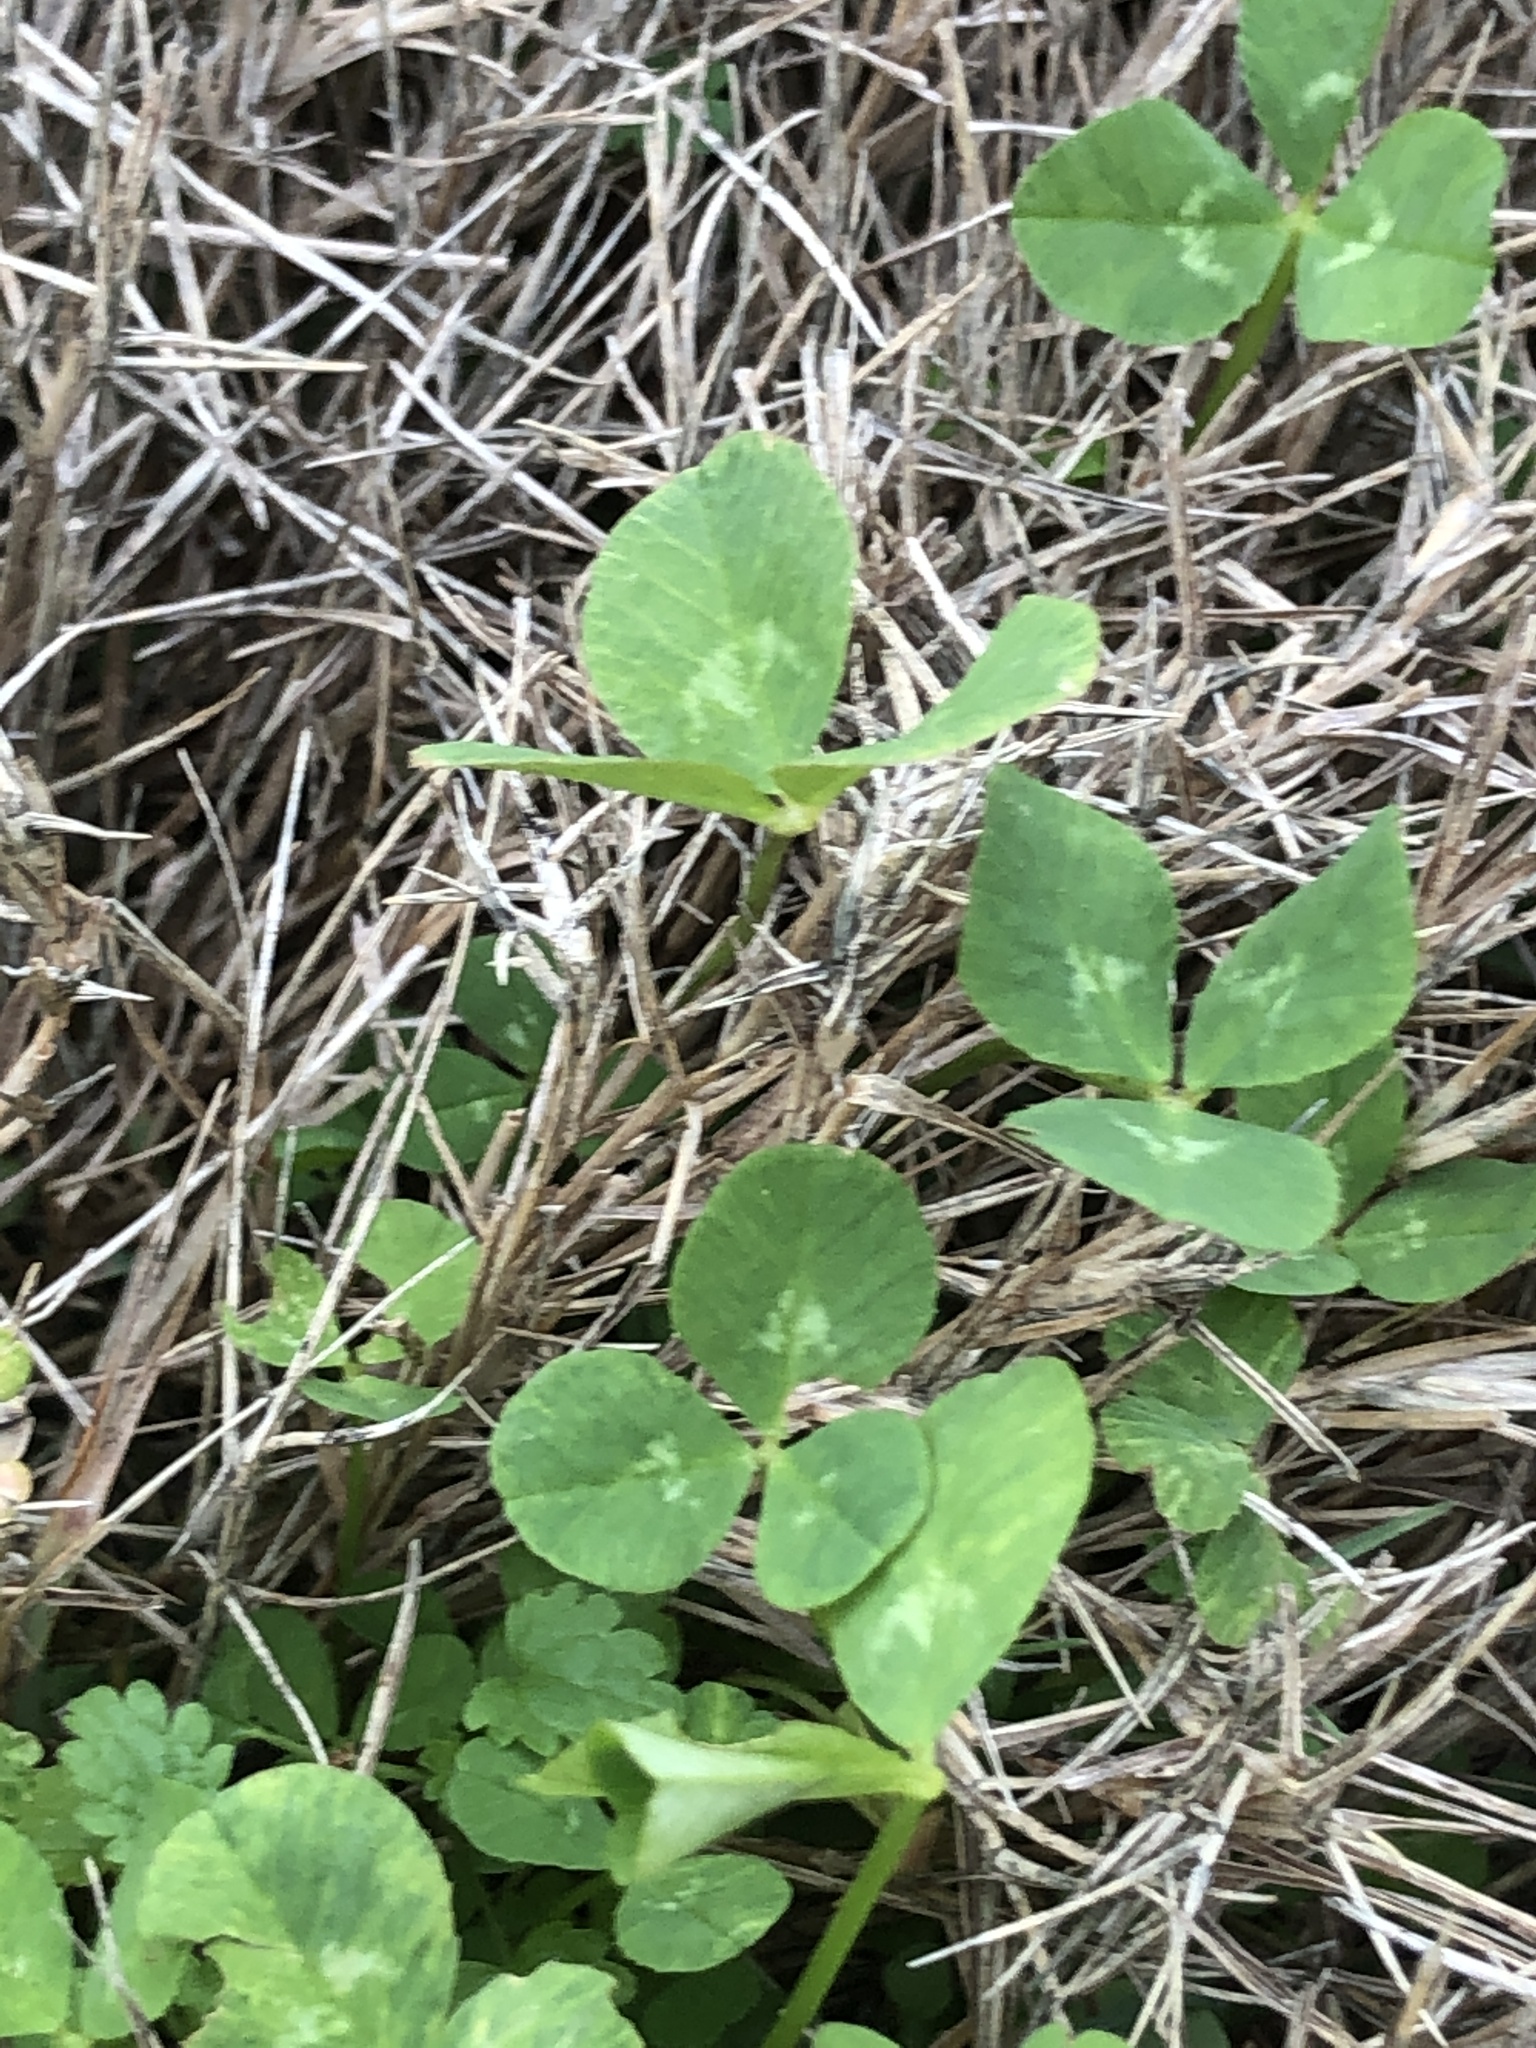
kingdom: Plantae
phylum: Tracheophyta
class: Magnoliopsida
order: Fabales
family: Fabaceae
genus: Trifolium
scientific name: Trifolium repens
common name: White clover
